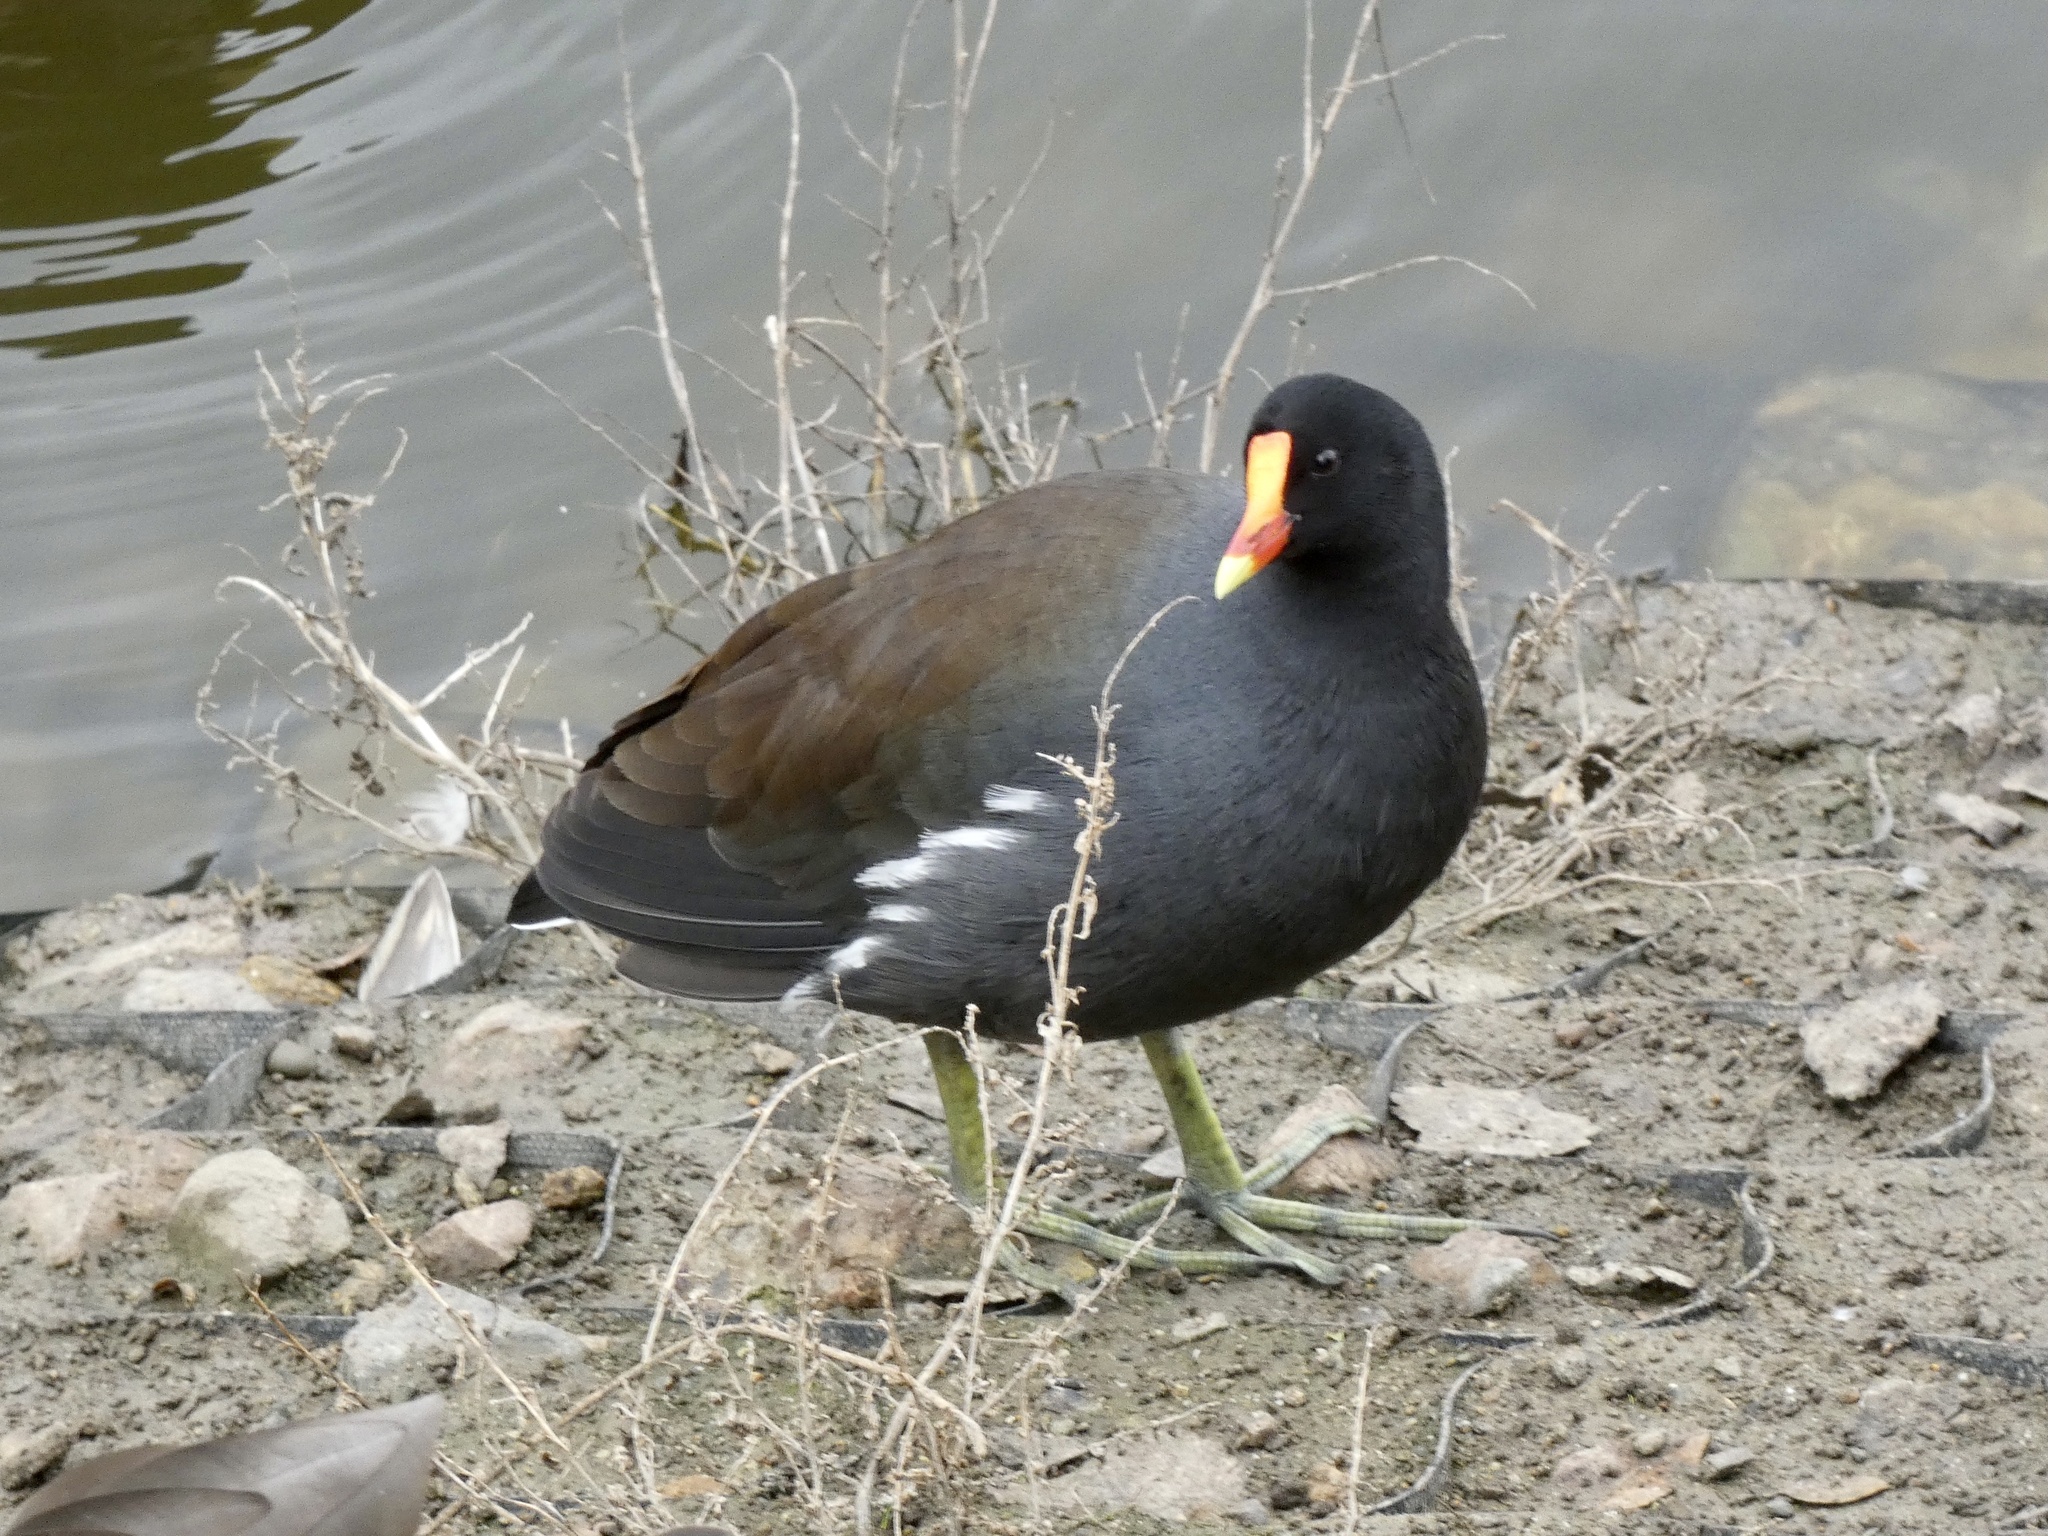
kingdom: Animalia
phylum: Chordata
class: Aves
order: Gruiformes
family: Rallidae
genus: Gallinula
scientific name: Gallinula chloropus
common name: Common moorhen
